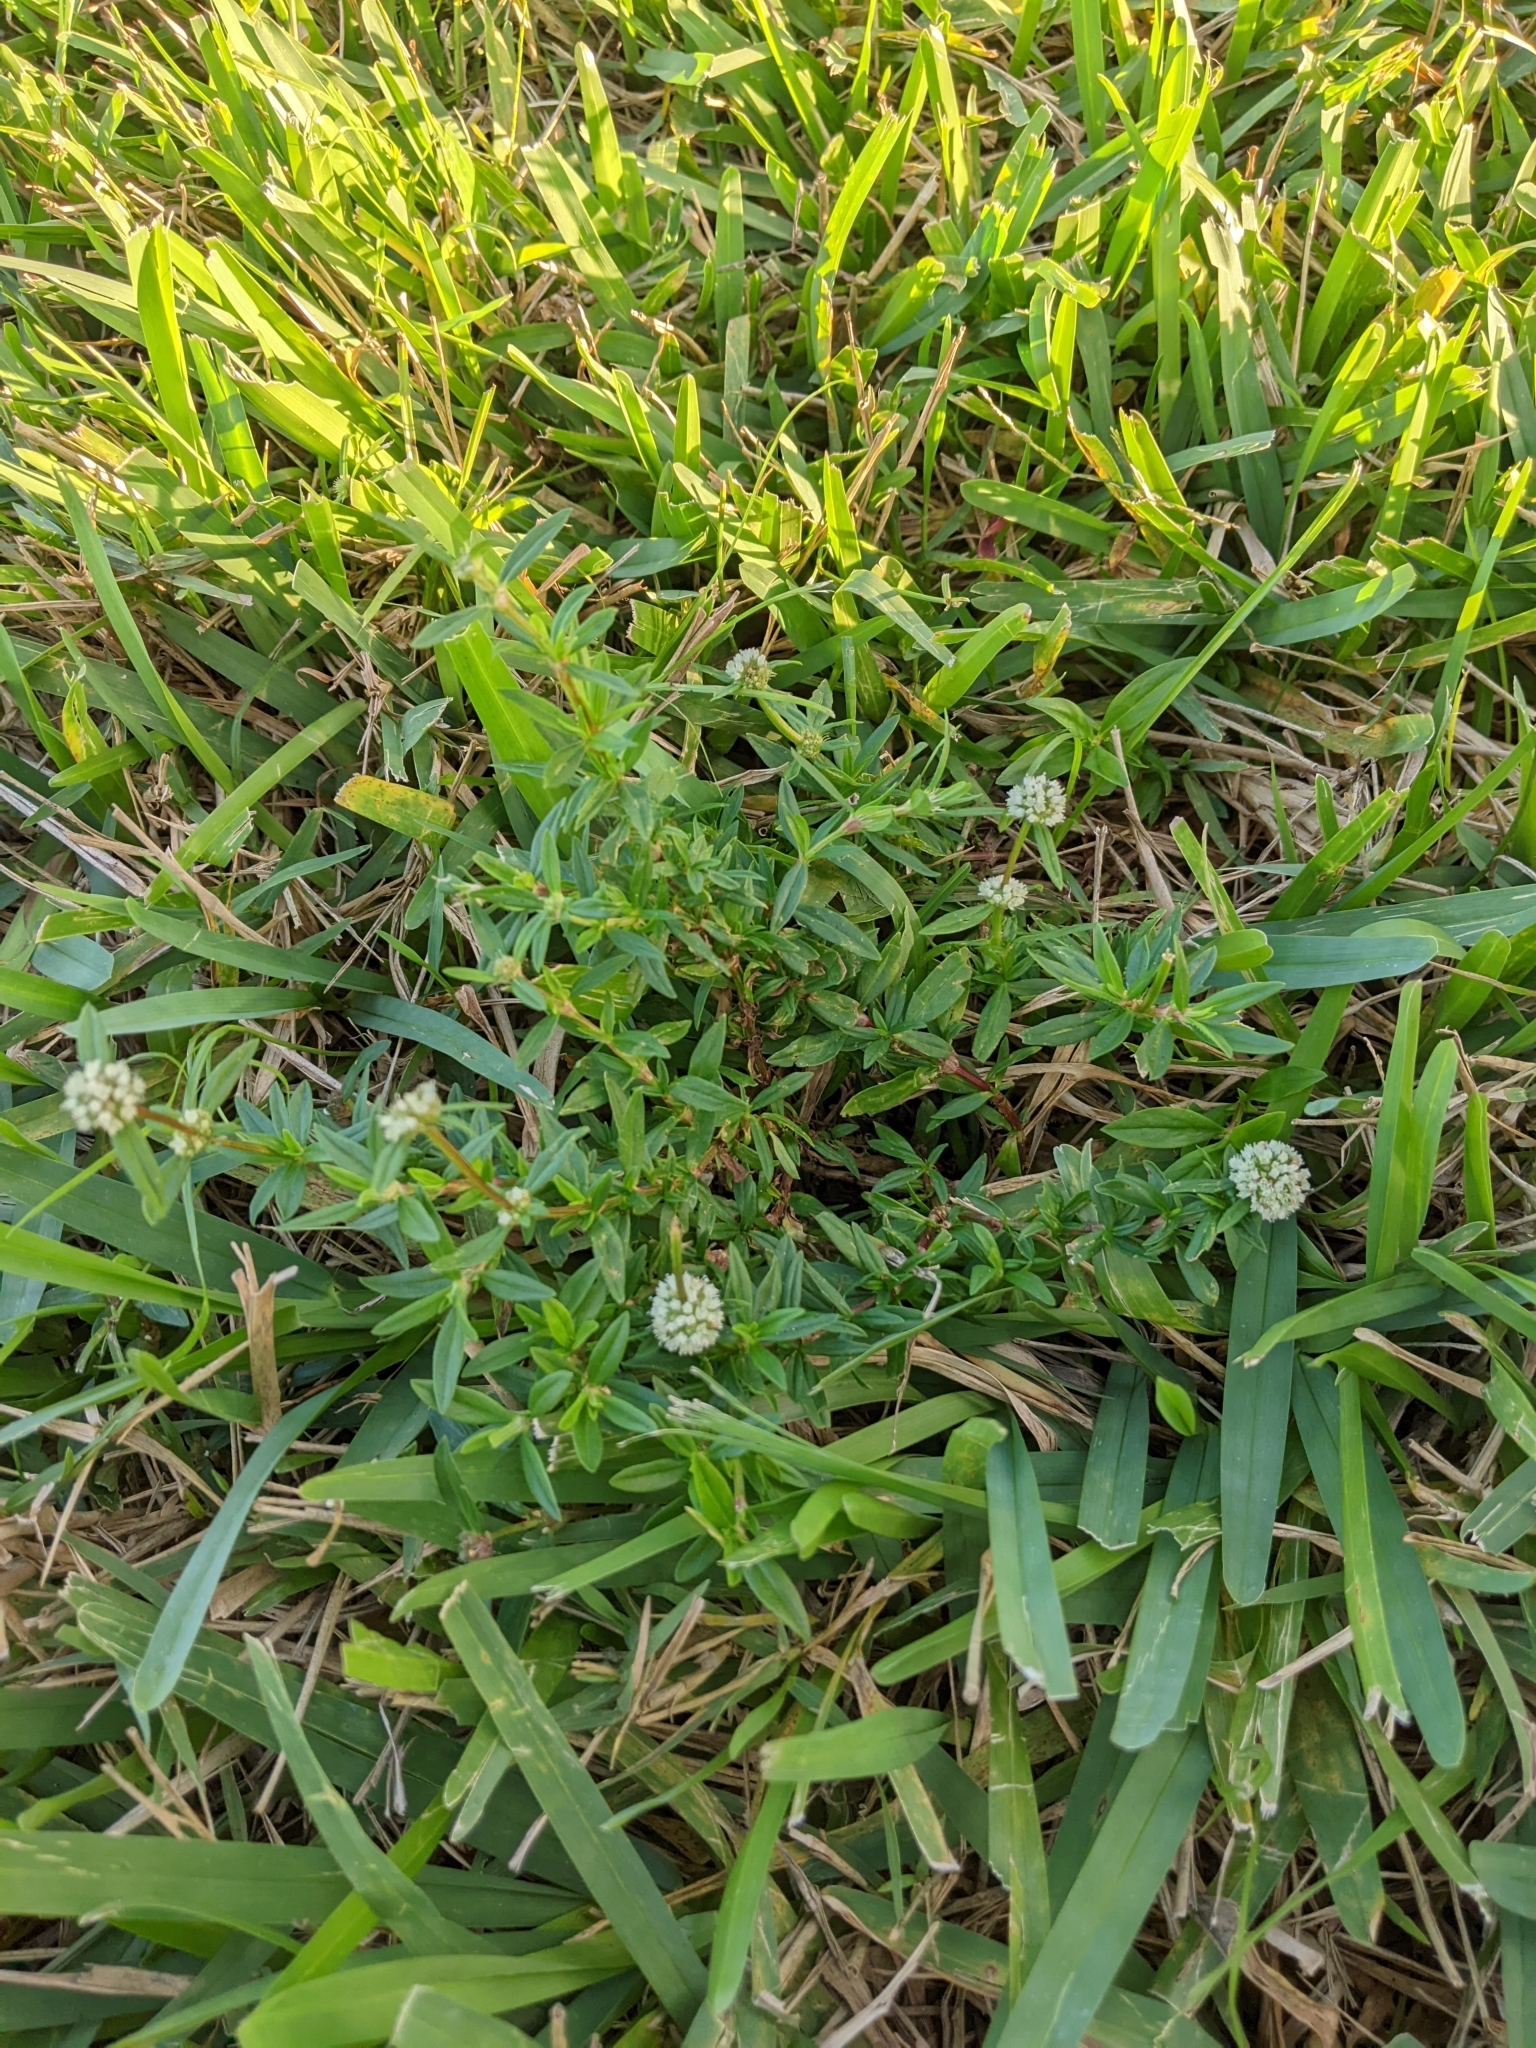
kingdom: Plantae
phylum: Tracheophyta
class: Magnoliopsida
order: Gentianales
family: Rubiaceae
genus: Spermacoce
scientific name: Spermacoce verticillata
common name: Shrubby false buttonweed
